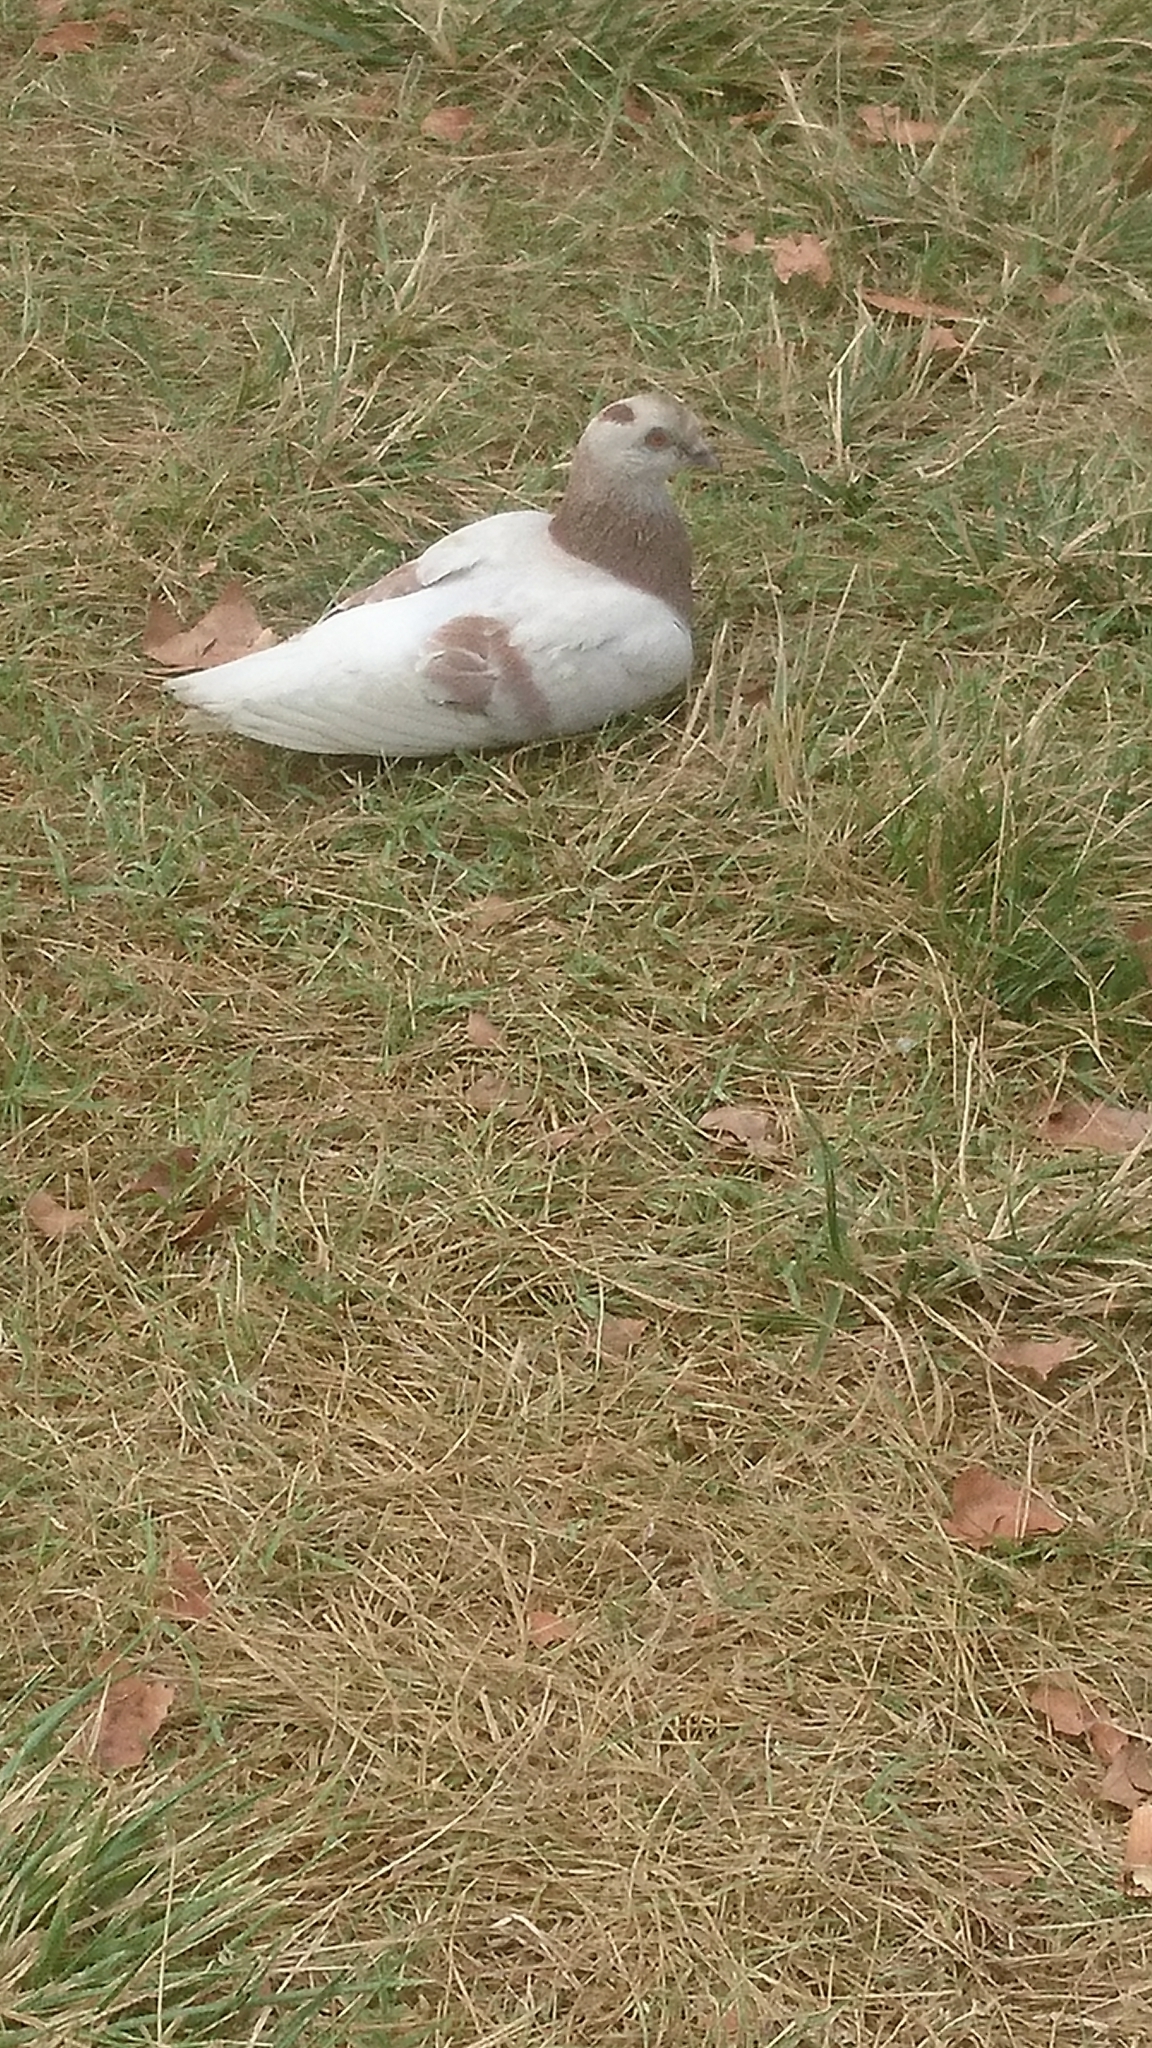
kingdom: Animalia
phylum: Chordata
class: Aves
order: Columbiformes
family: Columbidae
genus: Columba
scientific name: Columba livia
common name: Rock pigeon
